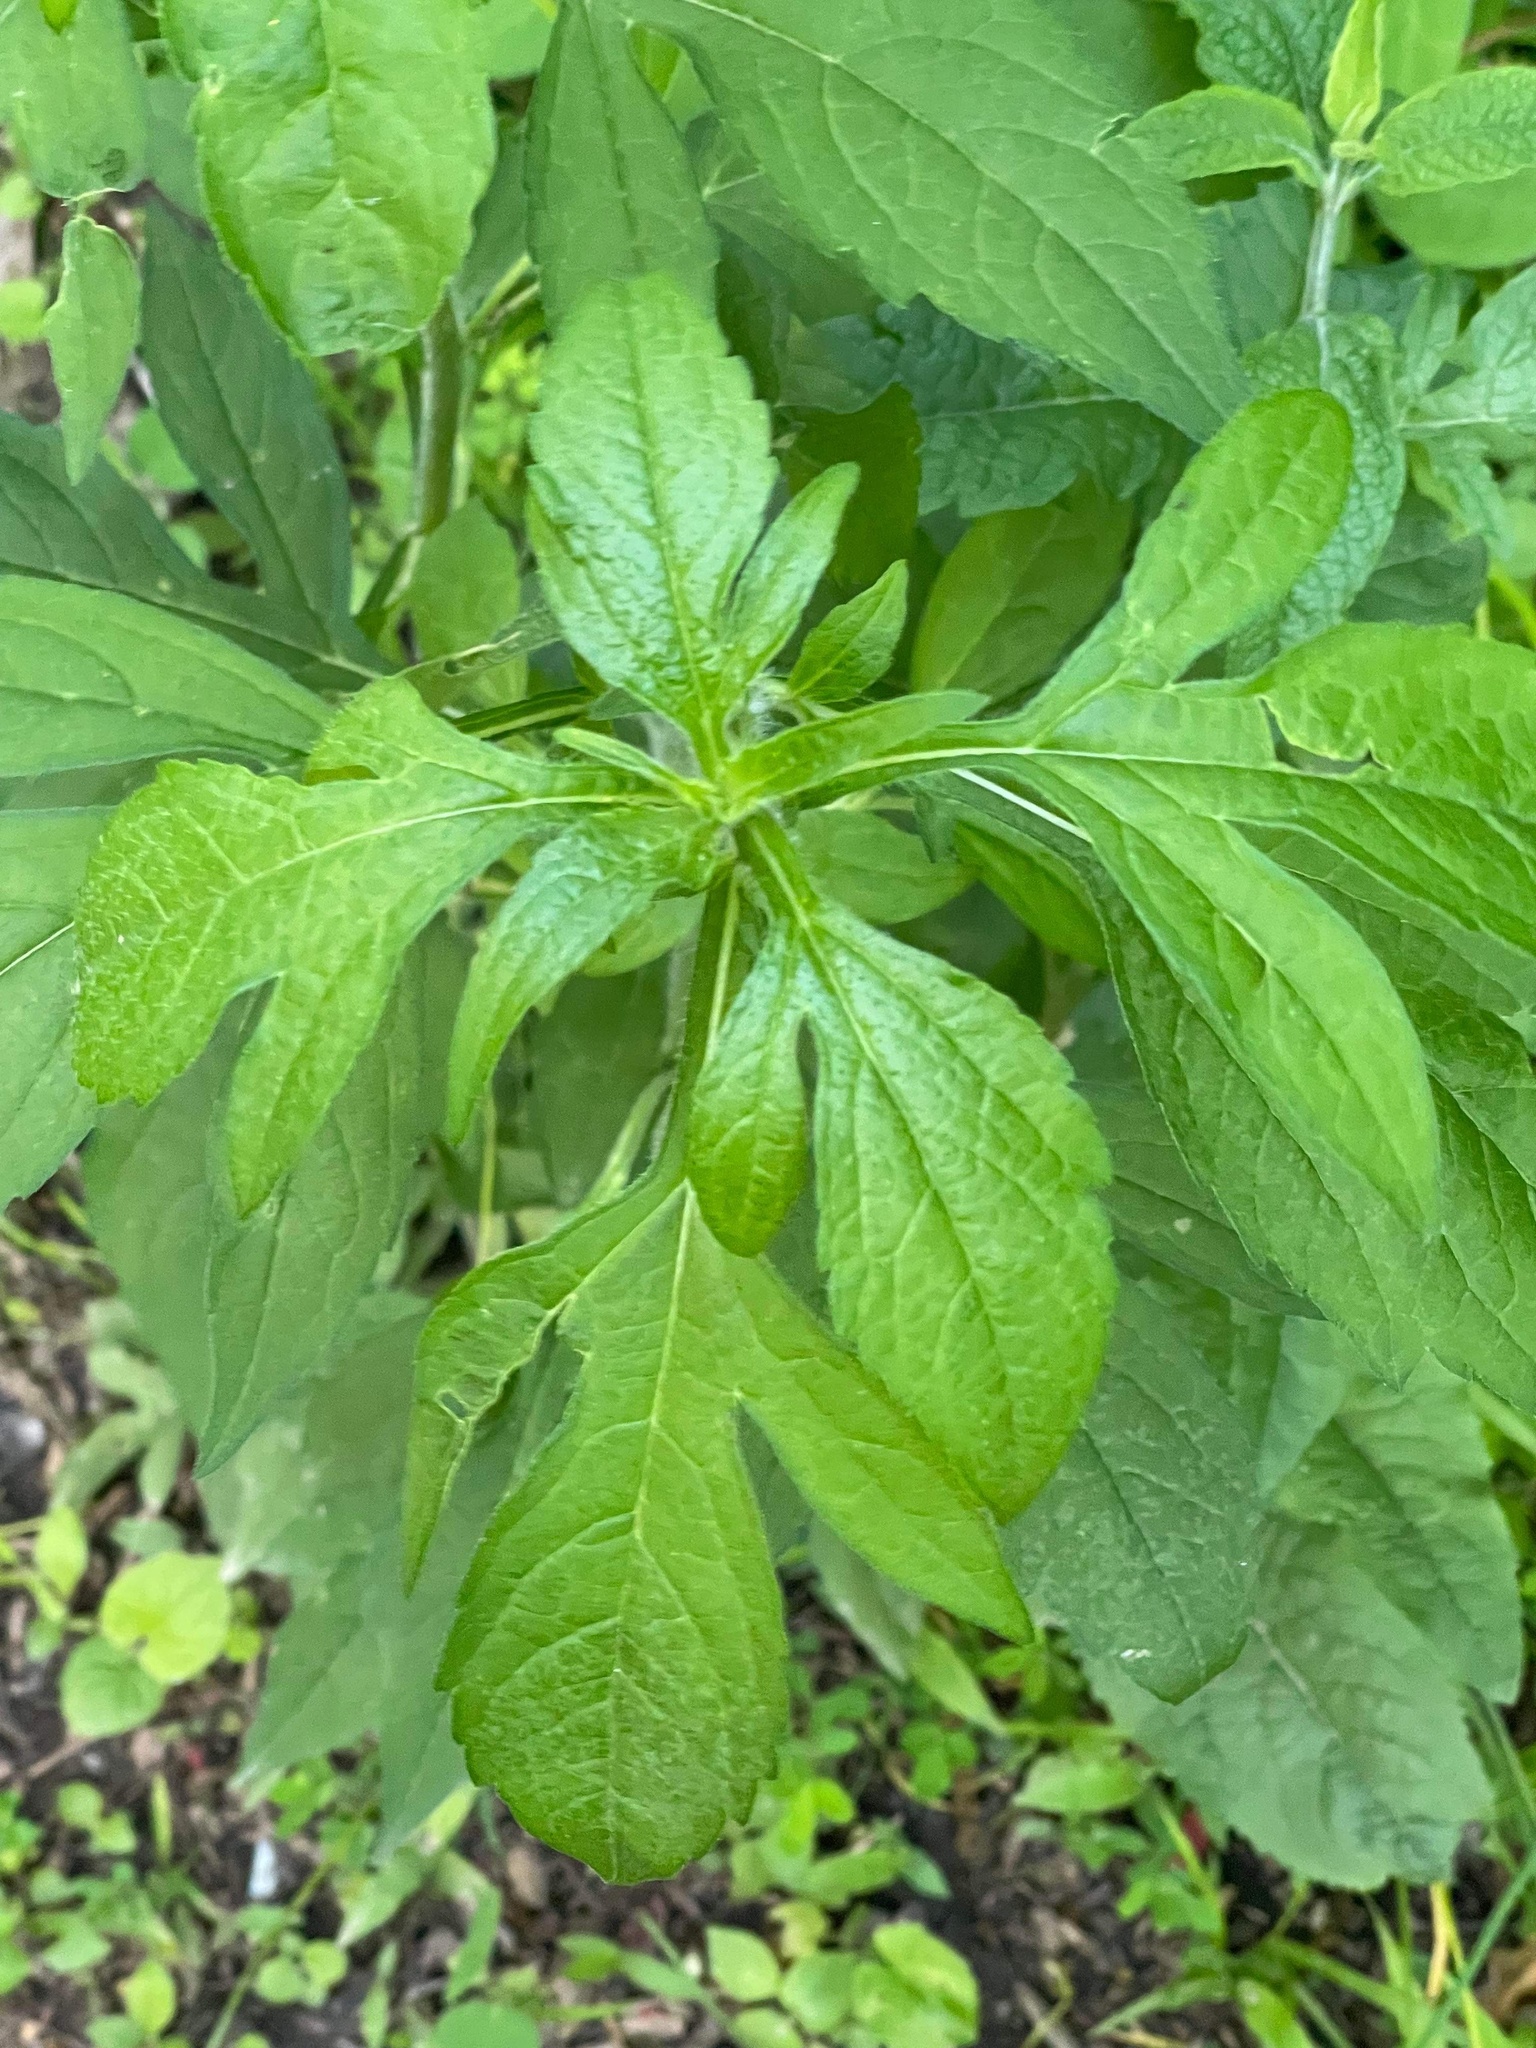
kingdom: Plantae
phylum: Tracheophyta
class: Magnoliopsida
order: Asterales
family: Asteraceae
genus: Ambrosia
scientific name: Ambrosia trifida
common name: Giant ragweed
